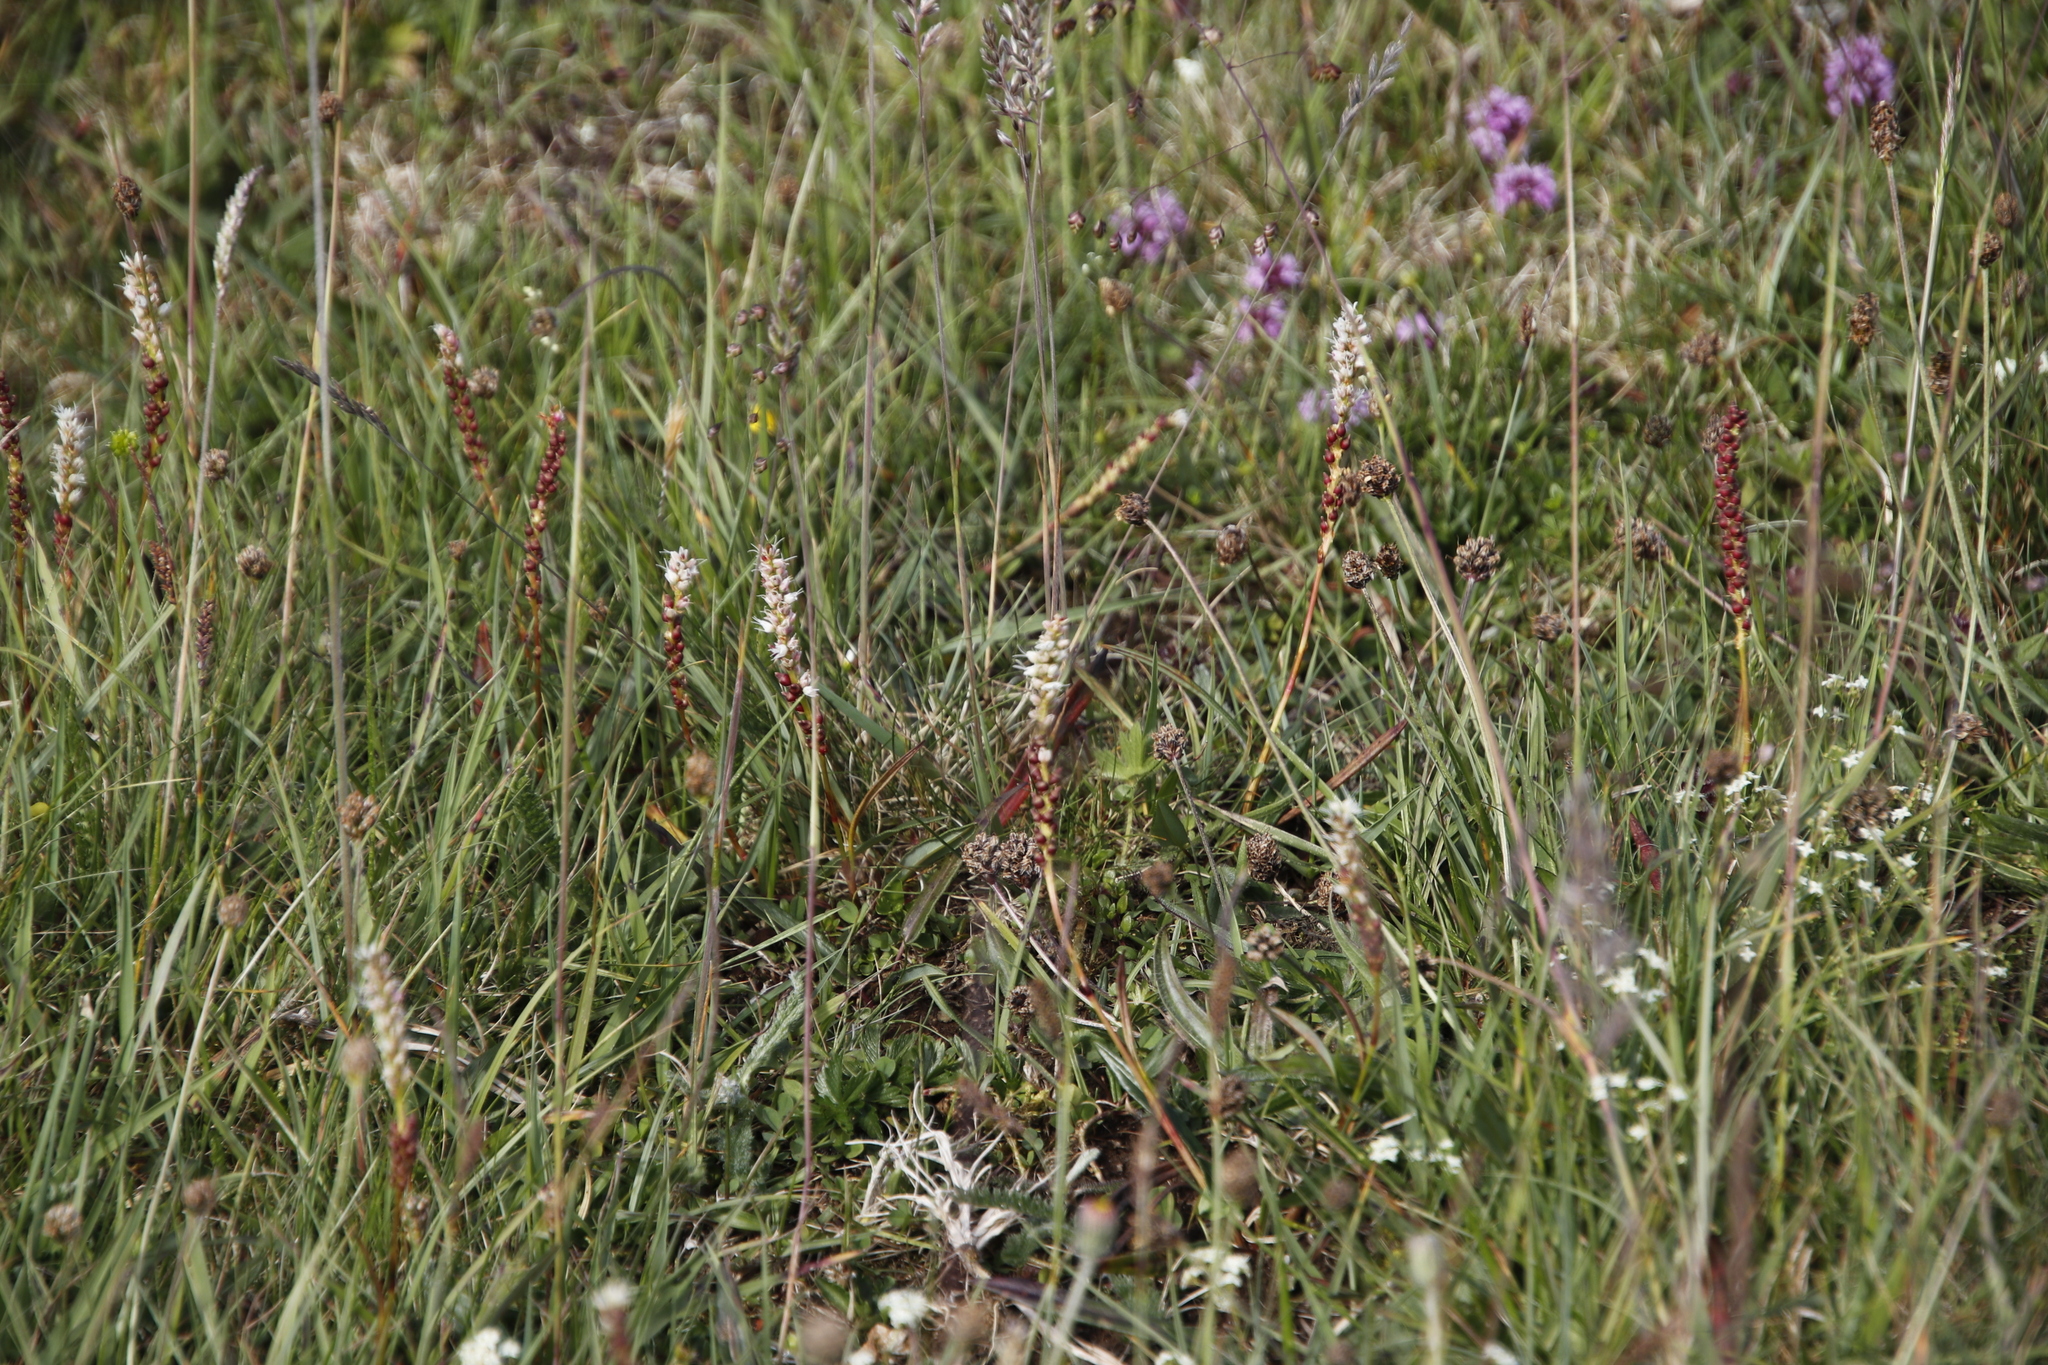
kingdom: Plantae
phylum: Tracheophyta
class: Magnoliopsida
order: Caryophyllales
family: Polygonaceae
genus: Bistorta
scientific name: Bistorta vivipara
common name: Alpine bistort
